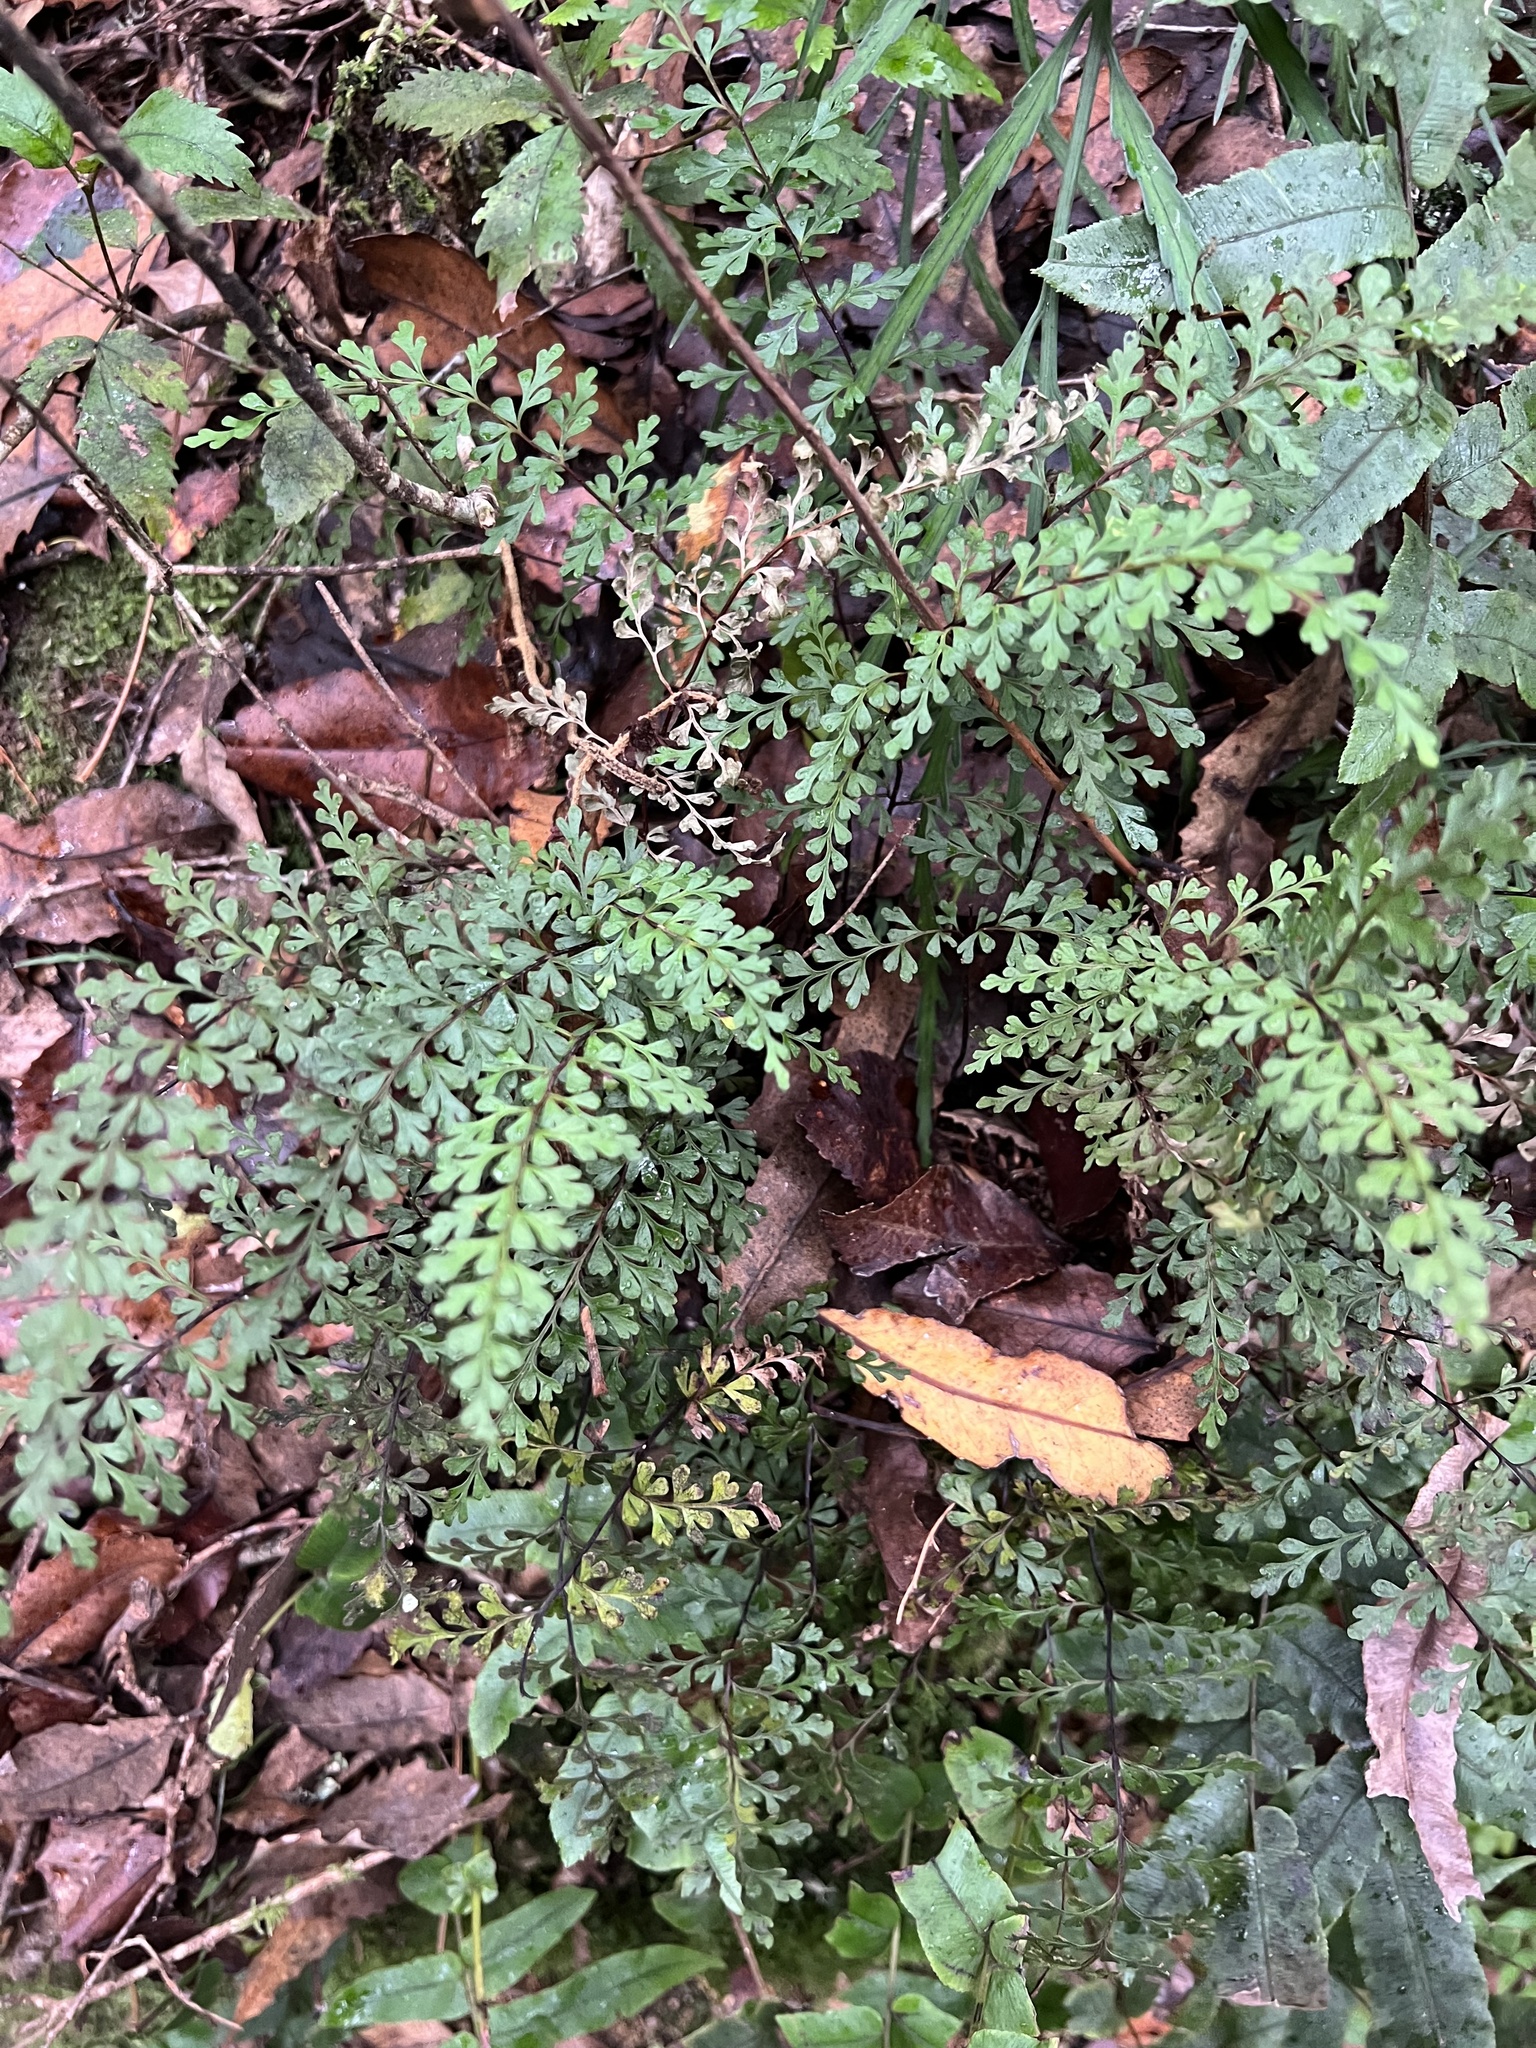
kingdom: Plantae
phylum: Tracheophyta
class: Polypodiopsida
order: Polypodiales
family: Lindsaeaceae
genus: Lindsaea
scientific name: Lindsaea trichomanoides
